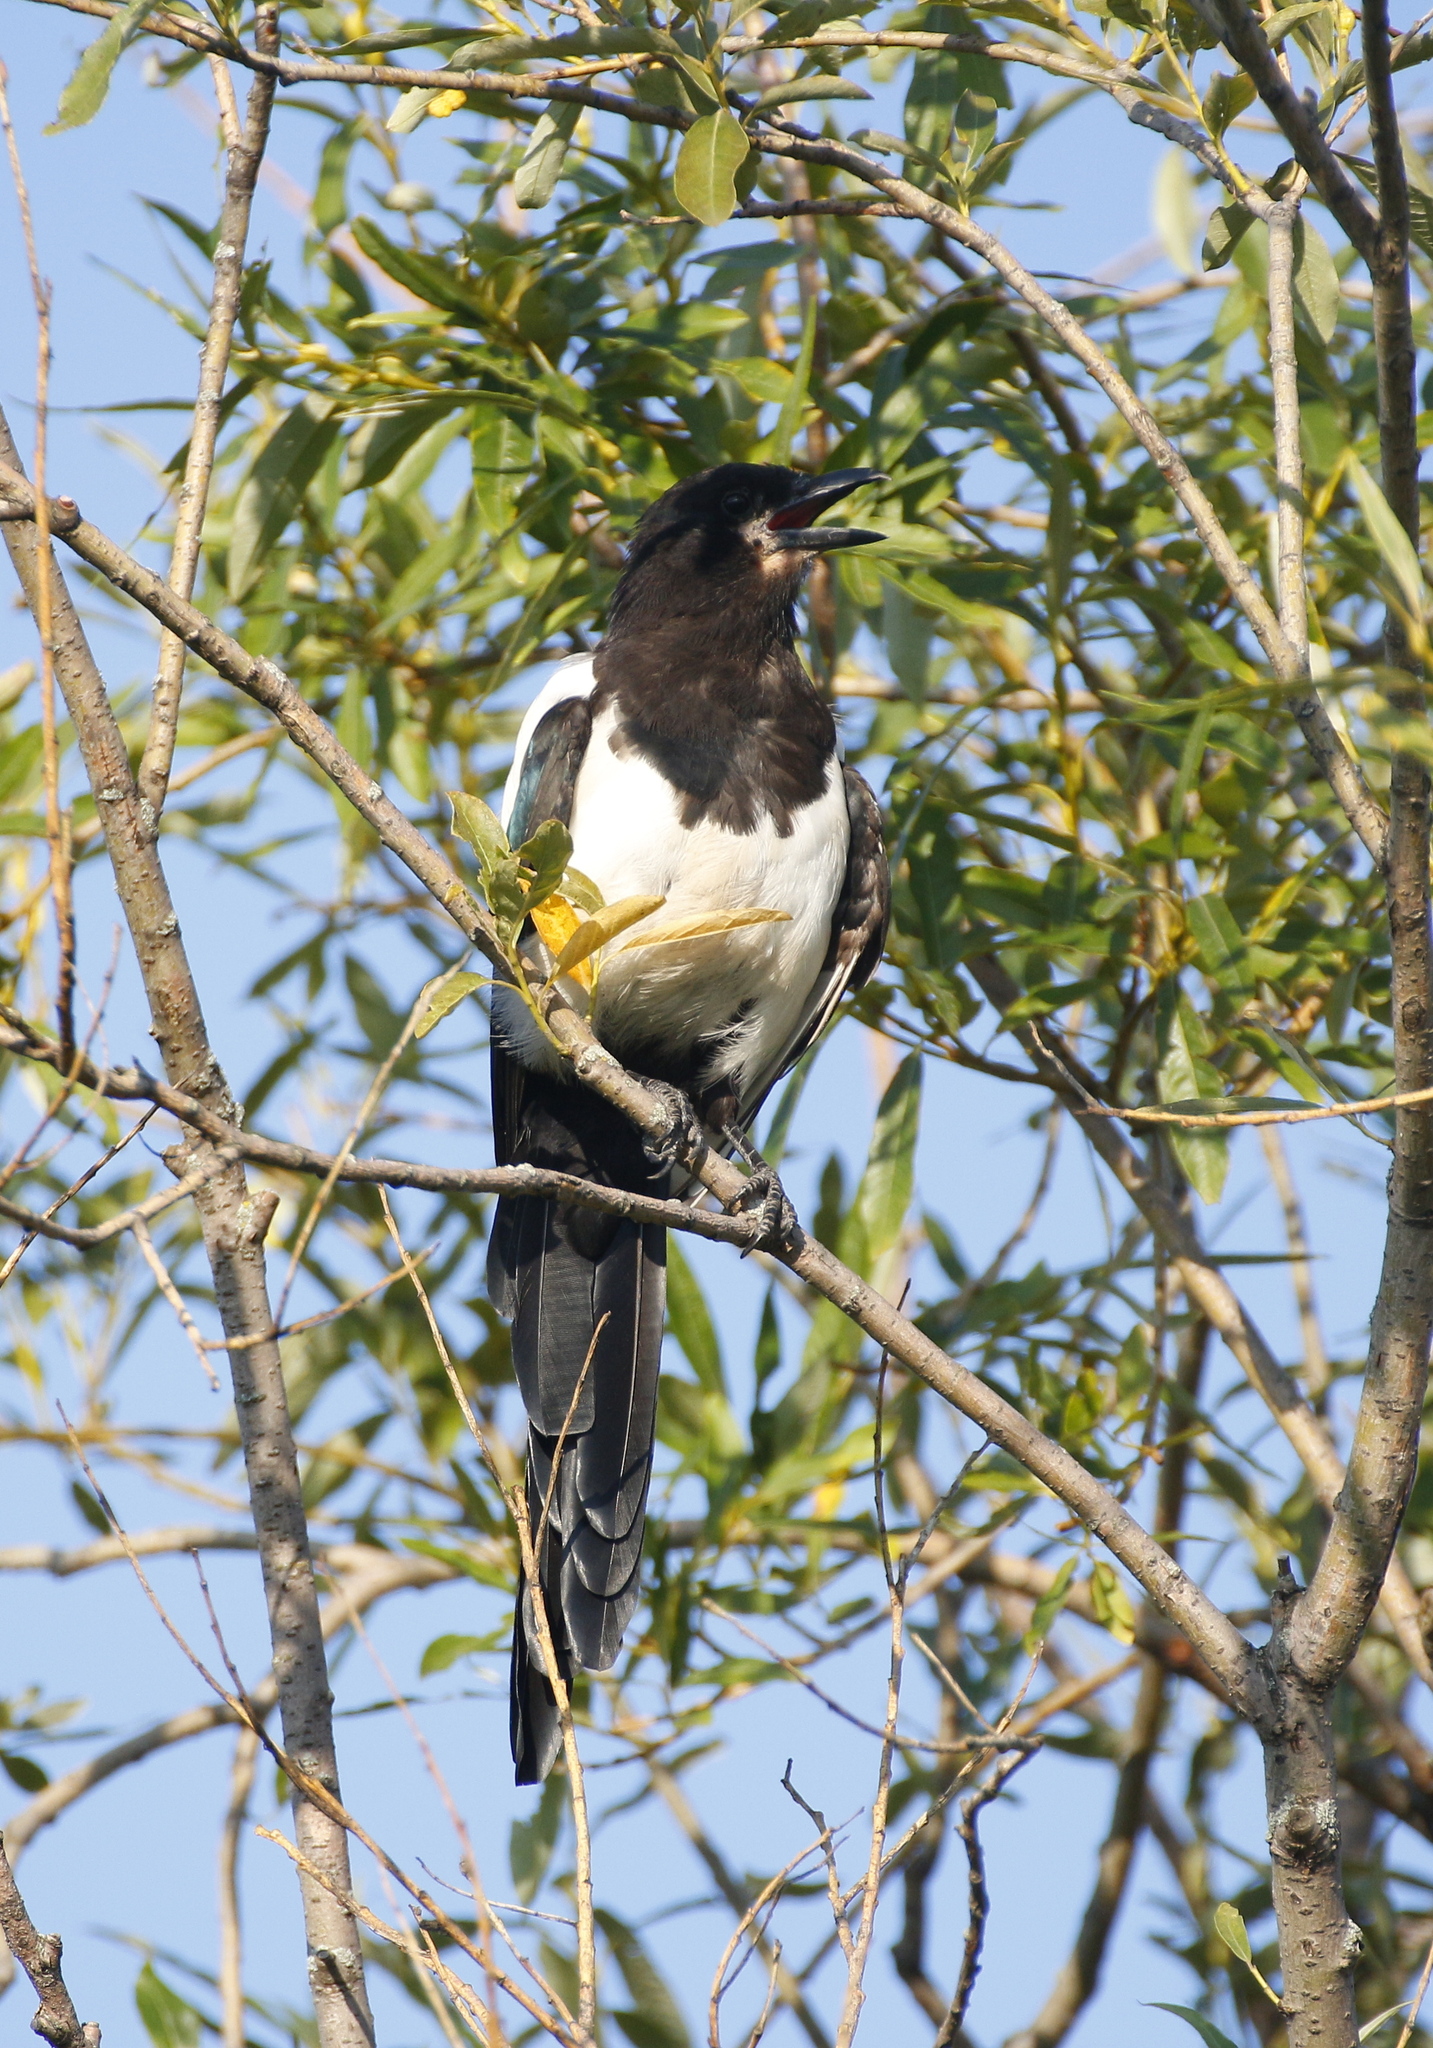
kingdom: Animalia
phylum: Chordata
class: Aves
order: Passeriformes
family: Corvidae
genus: Pica
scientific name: Pica pica
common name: Eurasian magpie
